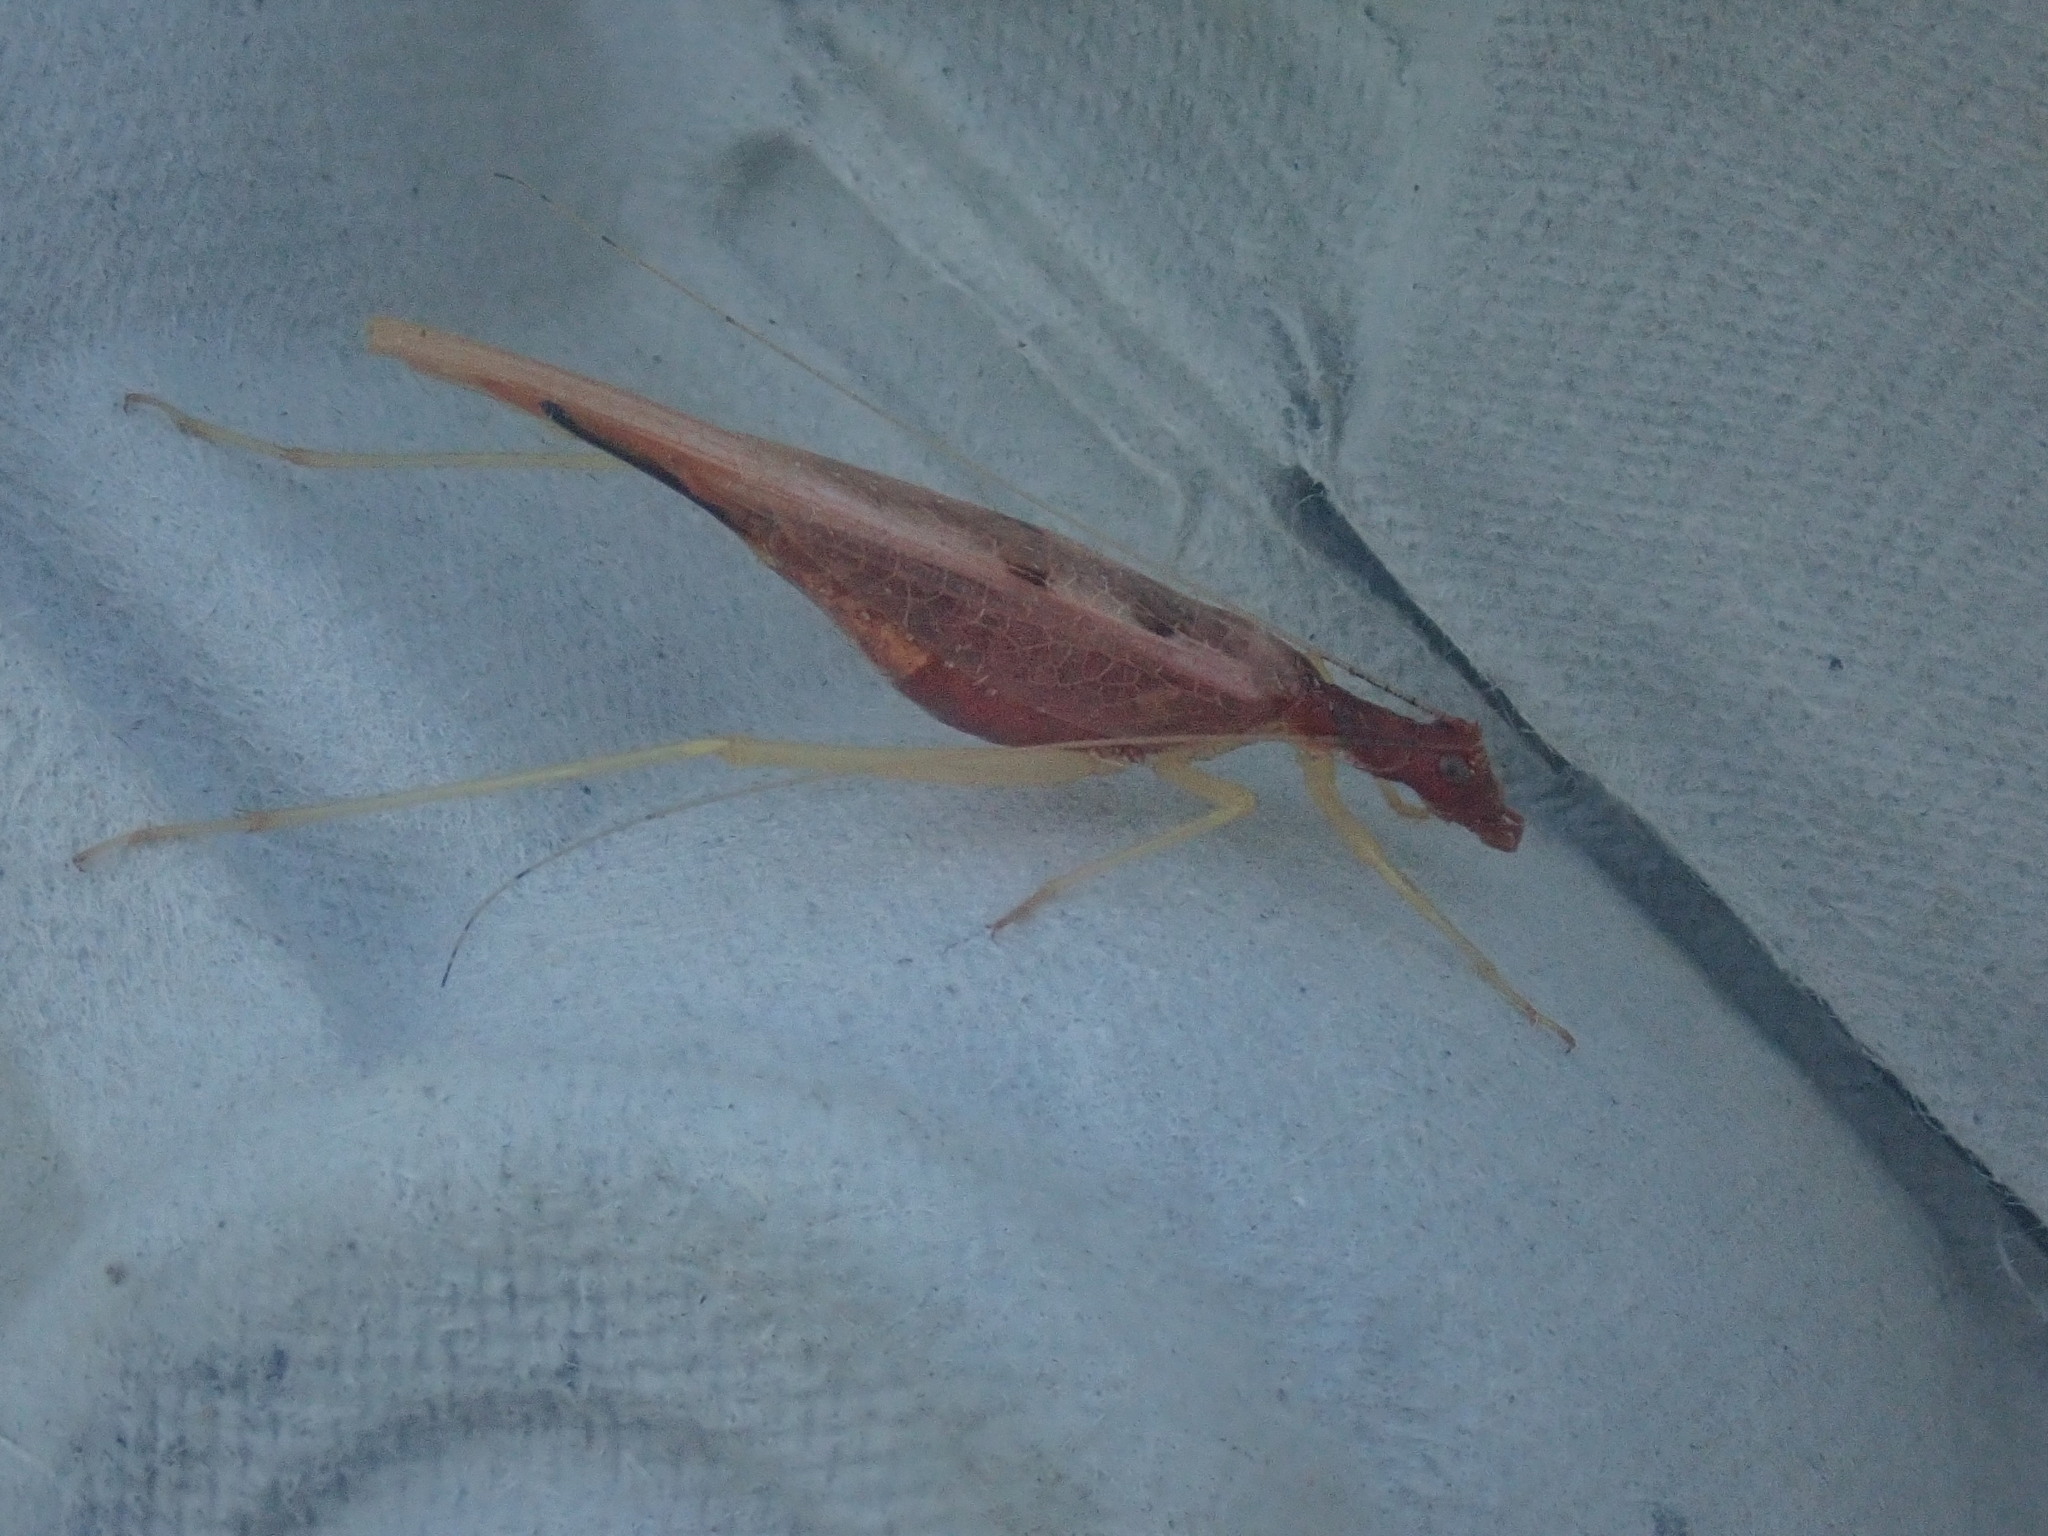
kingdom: Animalia
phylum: Arthropoda
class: Insecta
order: Orthoptera
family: Gryllidae
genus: Neoxabea
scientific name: Neoxabea bipunctata
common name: Two-spotted tree cricket
